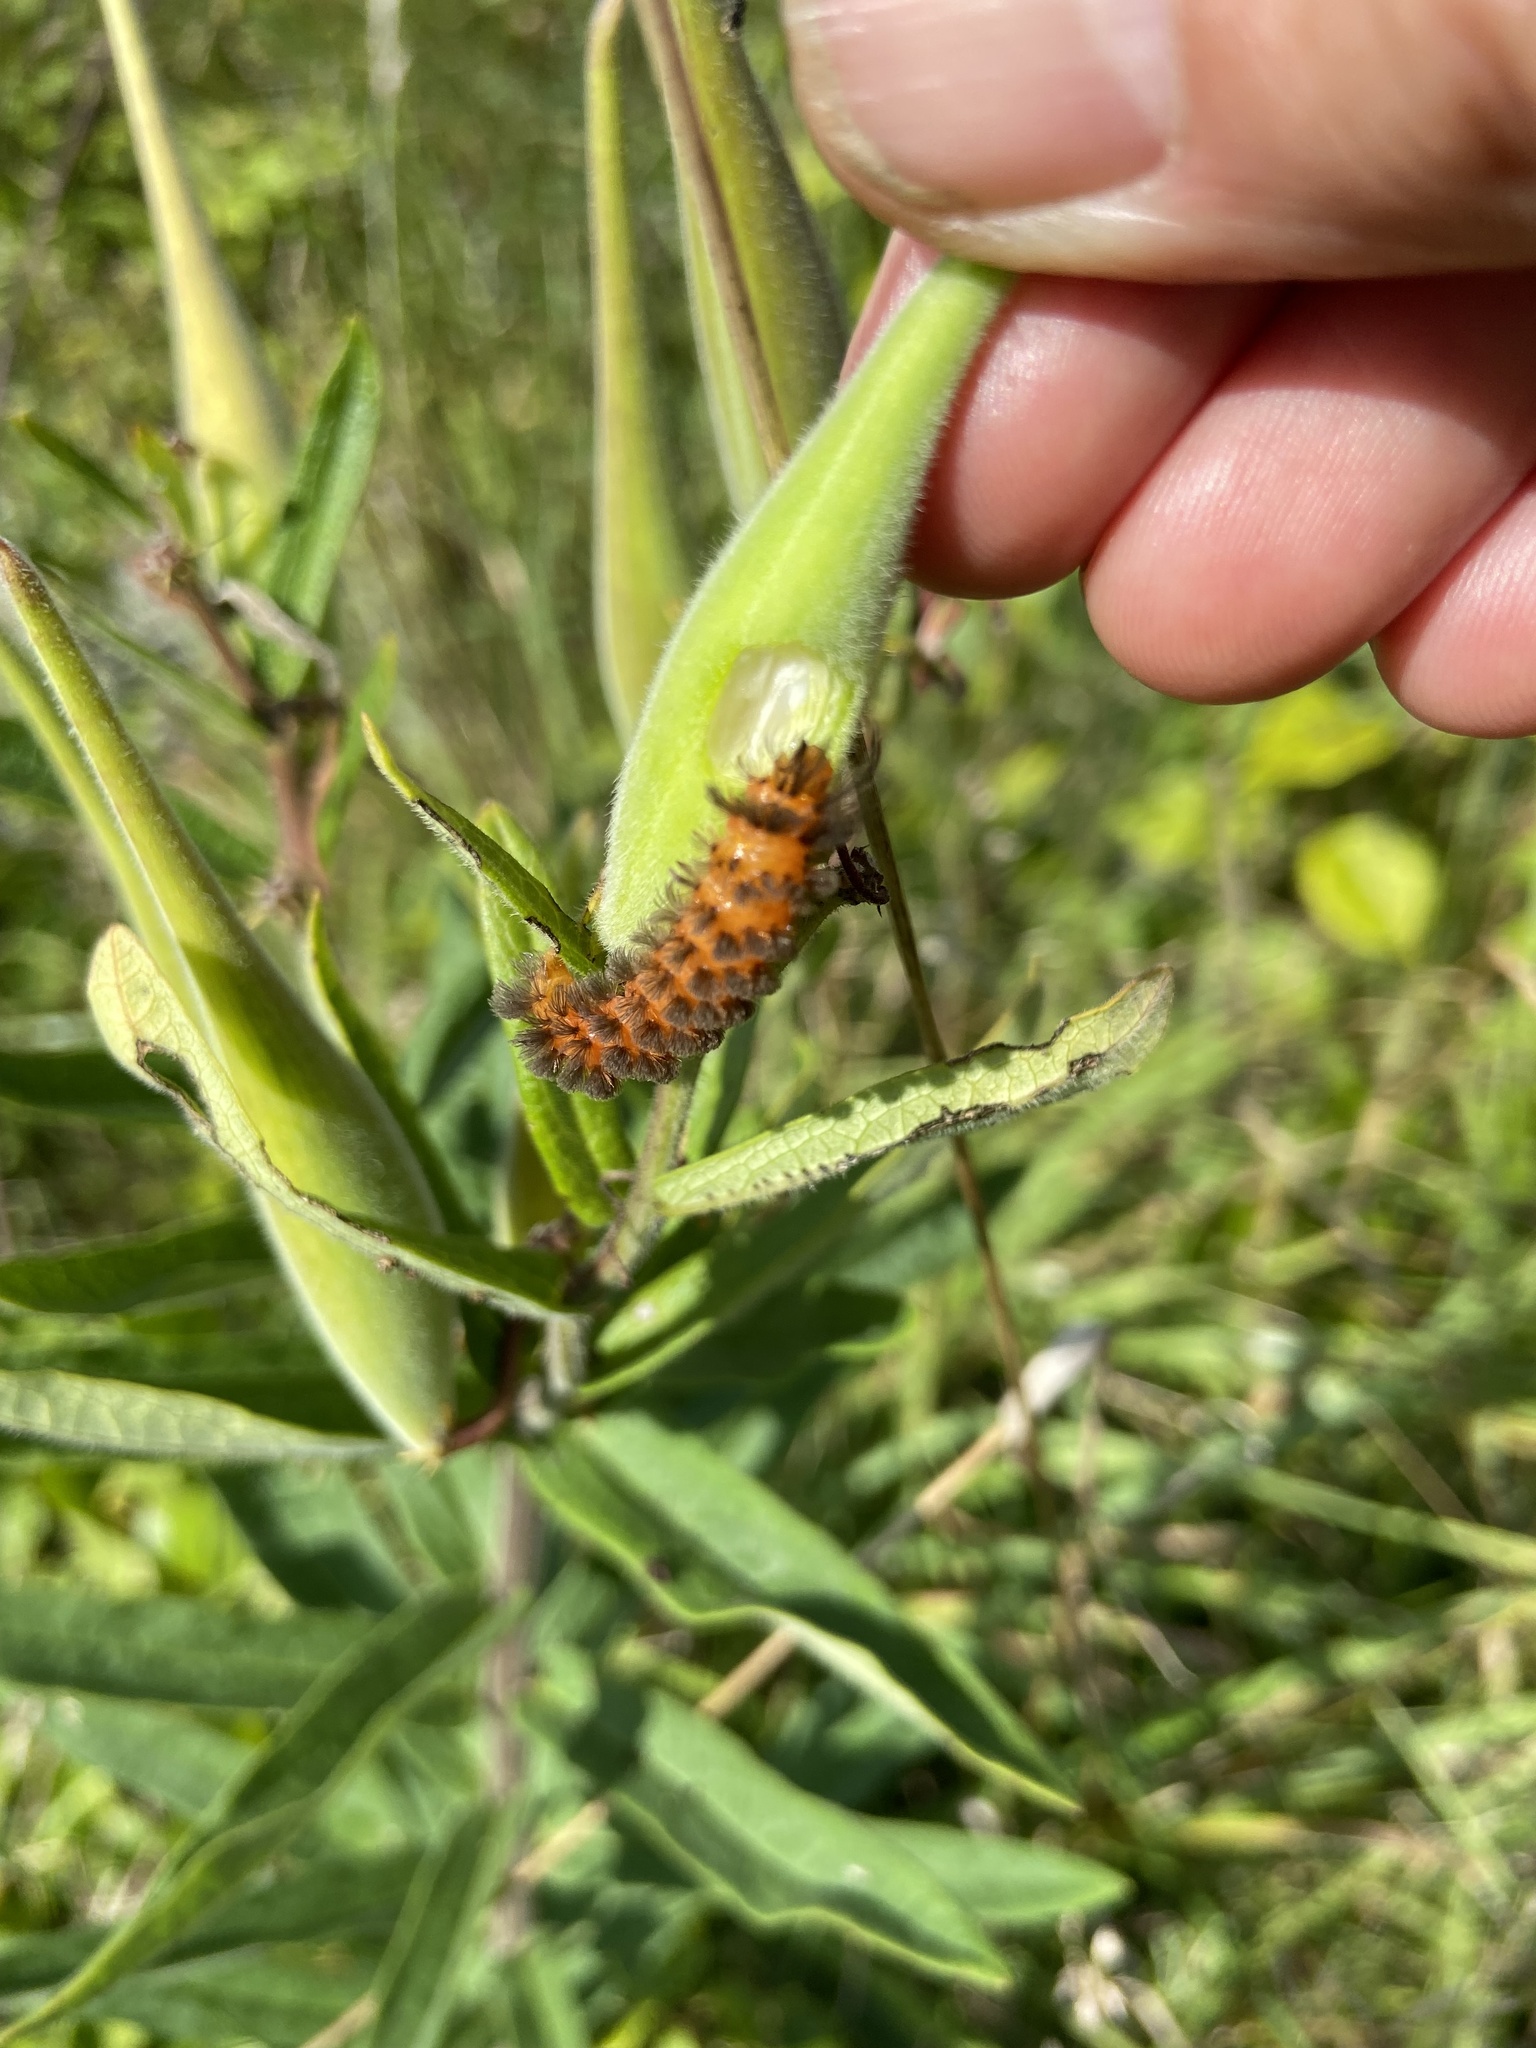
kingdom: Animalia
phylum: Arthropoda
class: Insecta
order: Lepidoptera
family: Erebidae
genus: Cycnia
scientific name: Cycnia collaris
